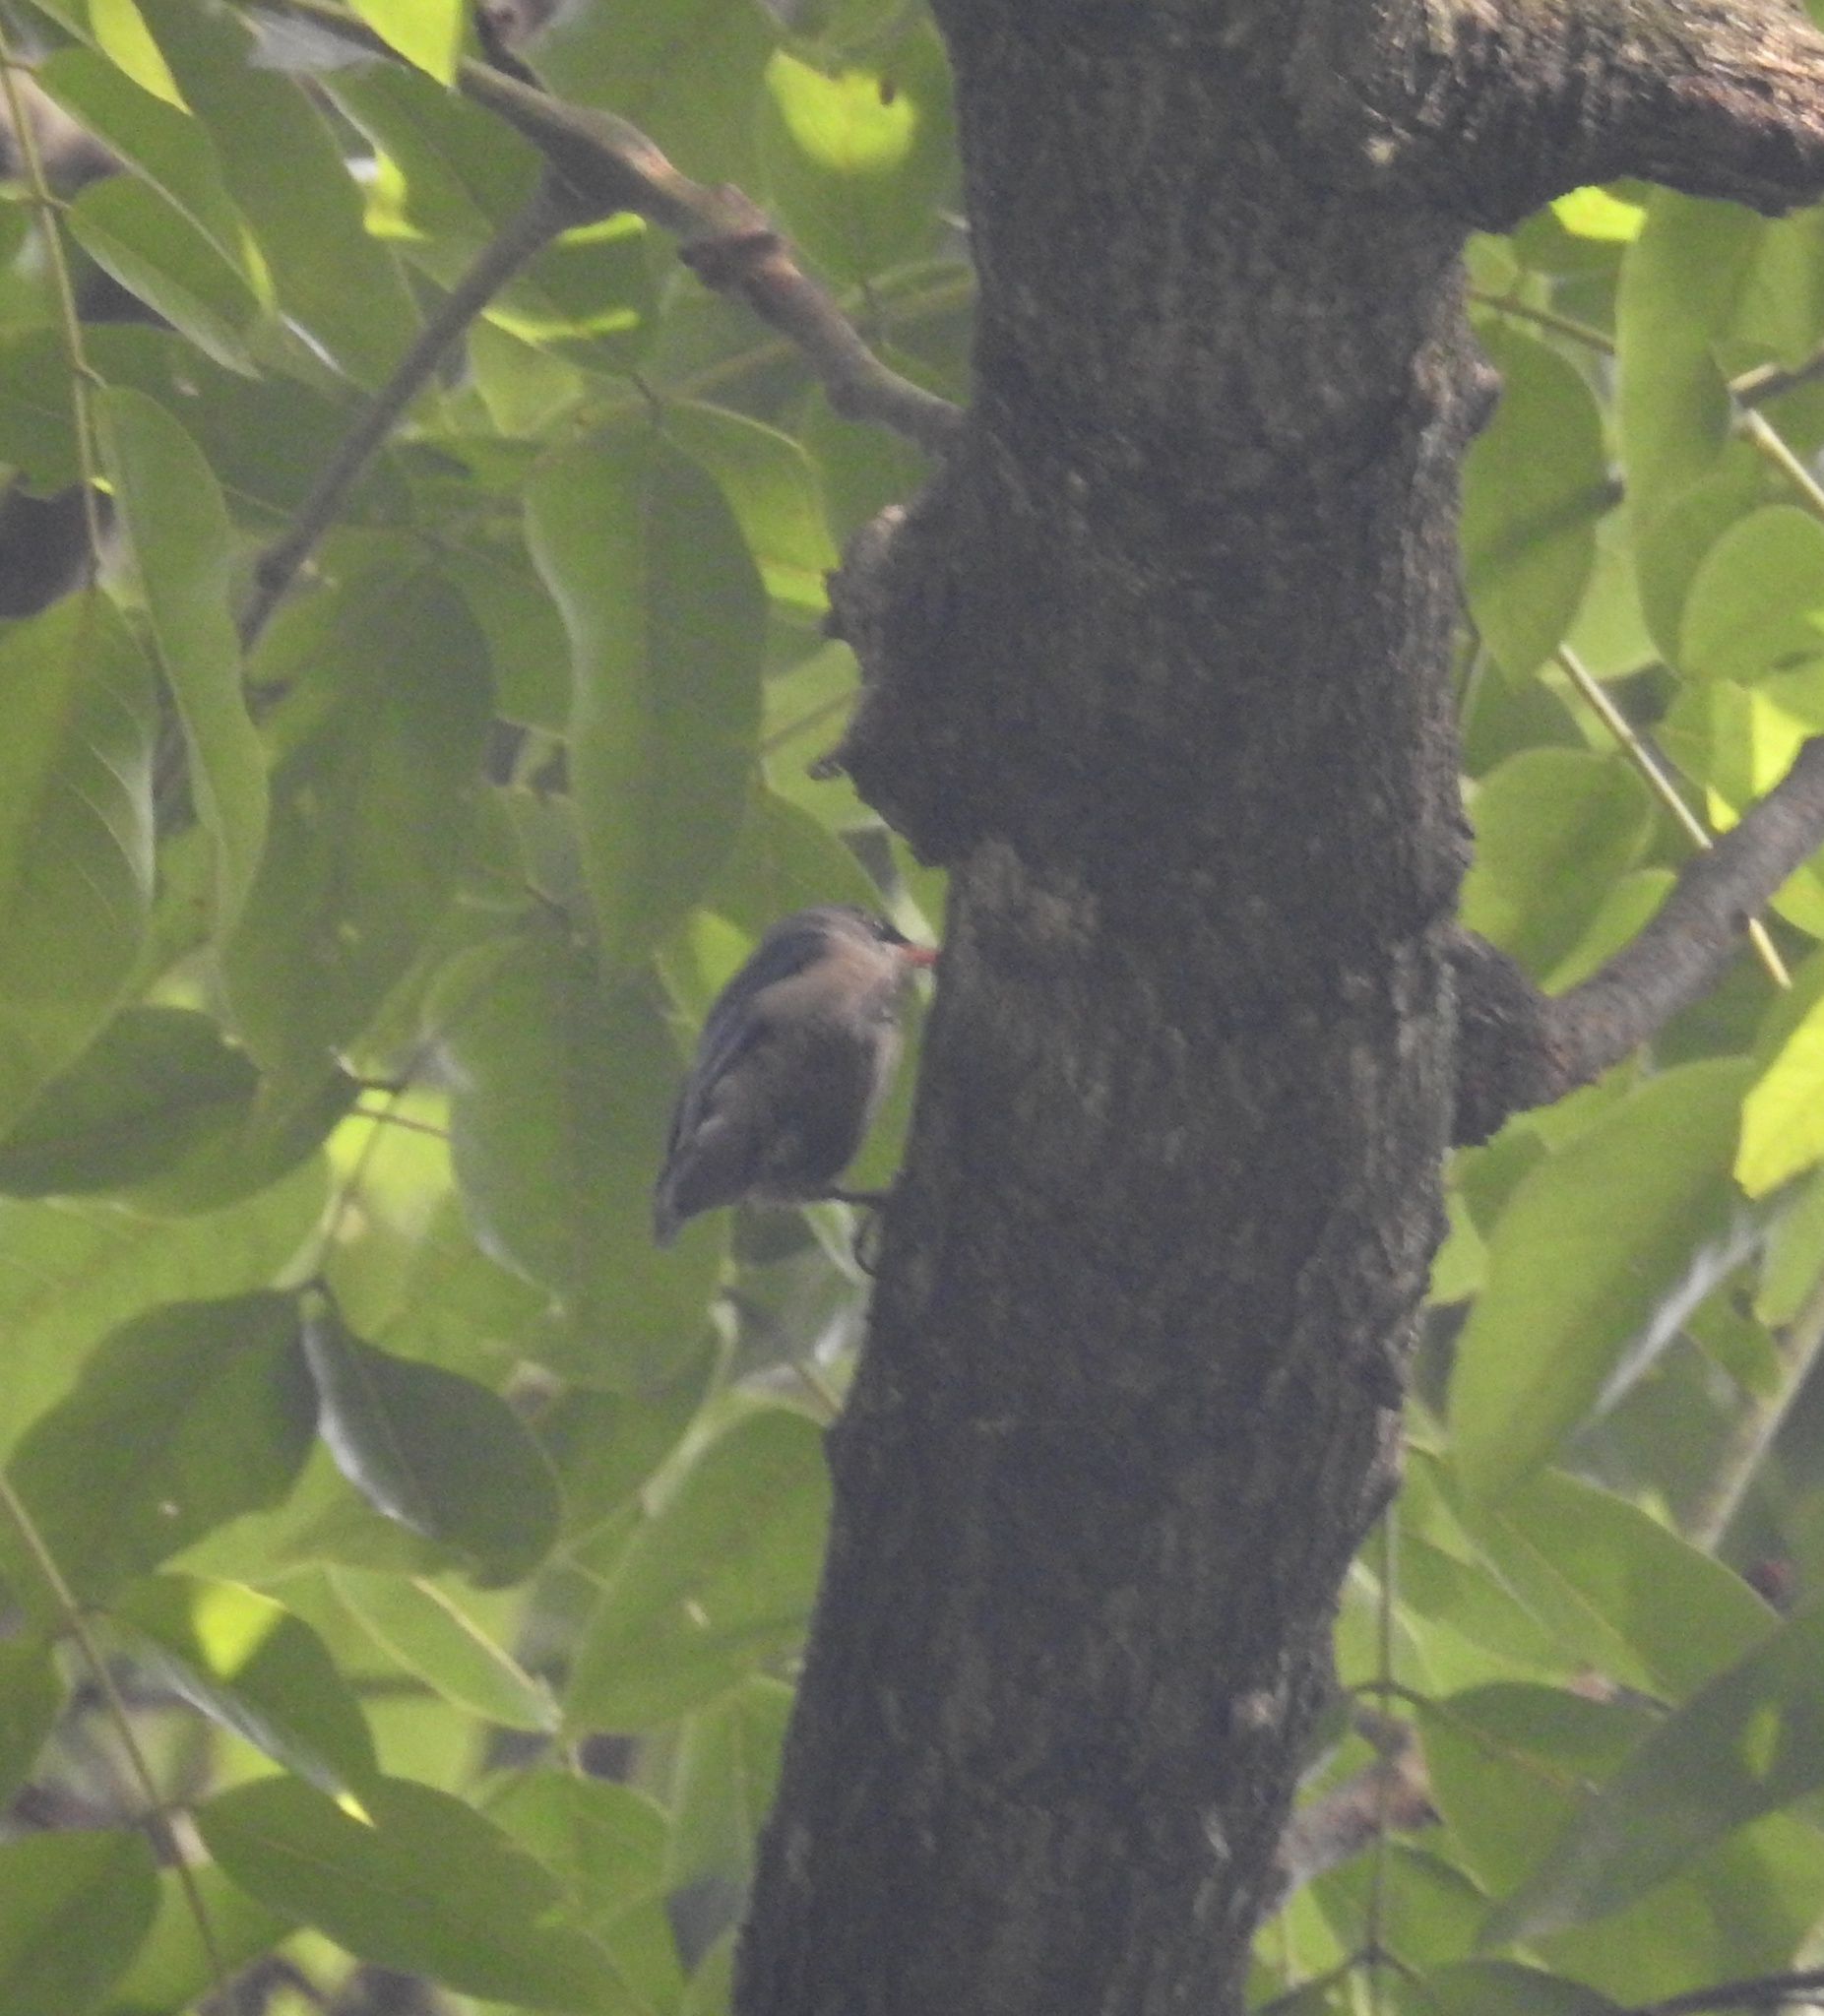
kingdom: Animalia
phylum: Chordata
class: Aves
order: Passeriformes
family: Sittidae
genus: Sitta
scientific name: Sitta frontalis
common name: Velvet-fronted nuthatch
